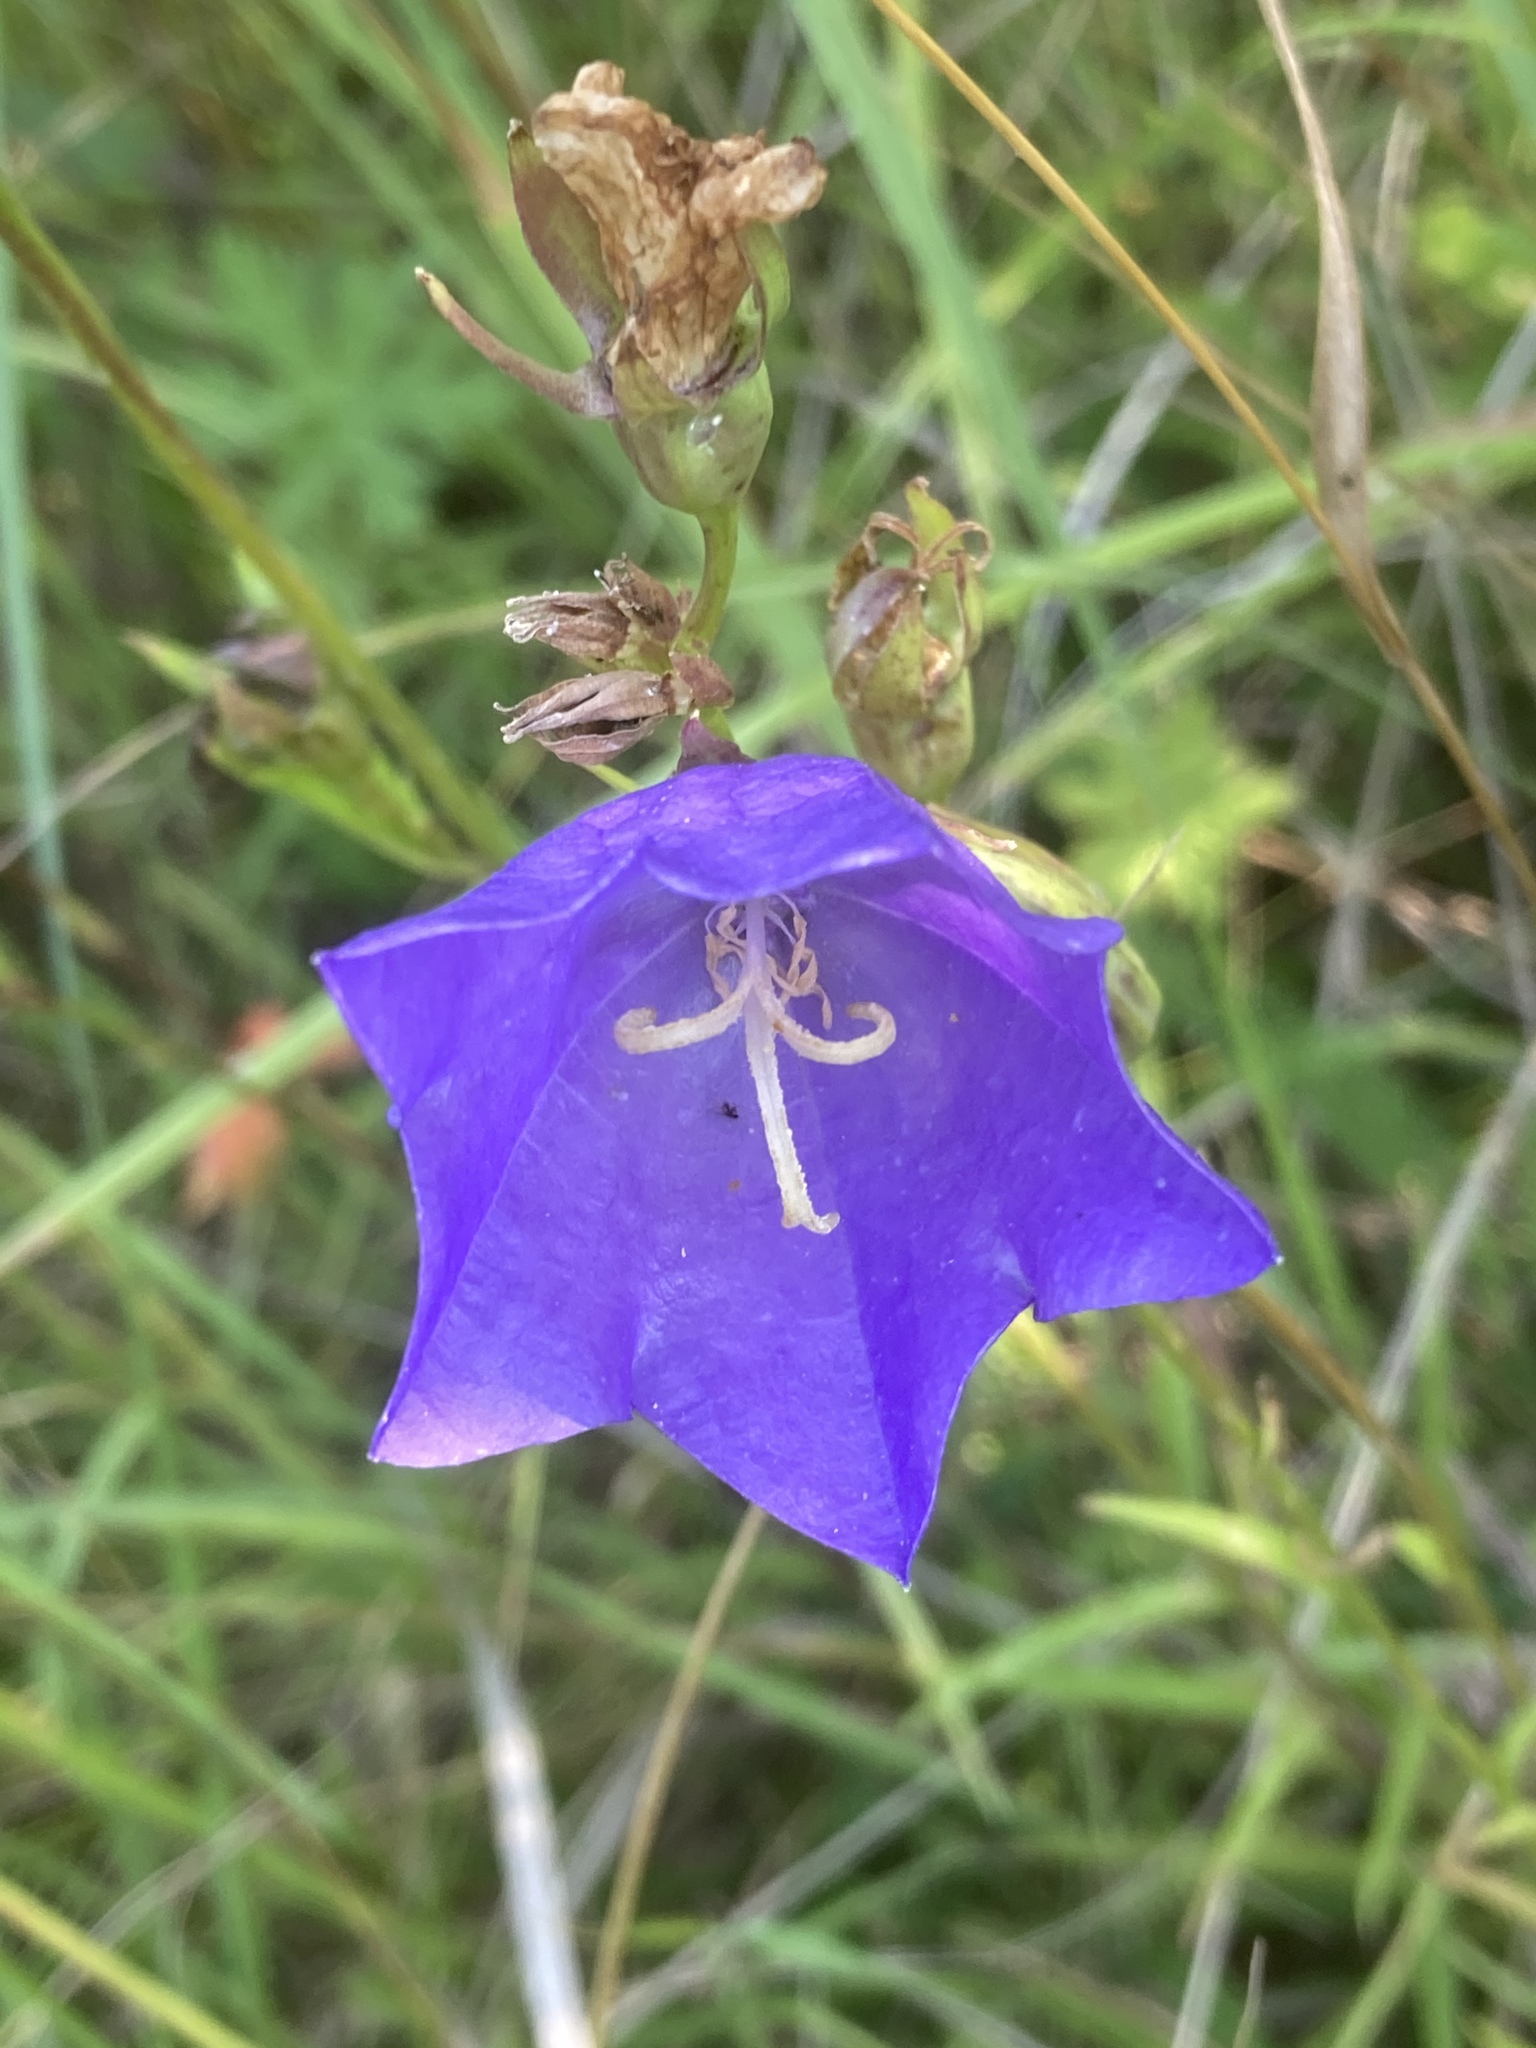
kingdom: Plantae
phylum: Tracheophyta
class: Magnoliopsida
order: Asterales
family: Campanulaceae
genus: Campanula
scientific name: Campanula persicifolia
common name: Peach-leaved bellflower
